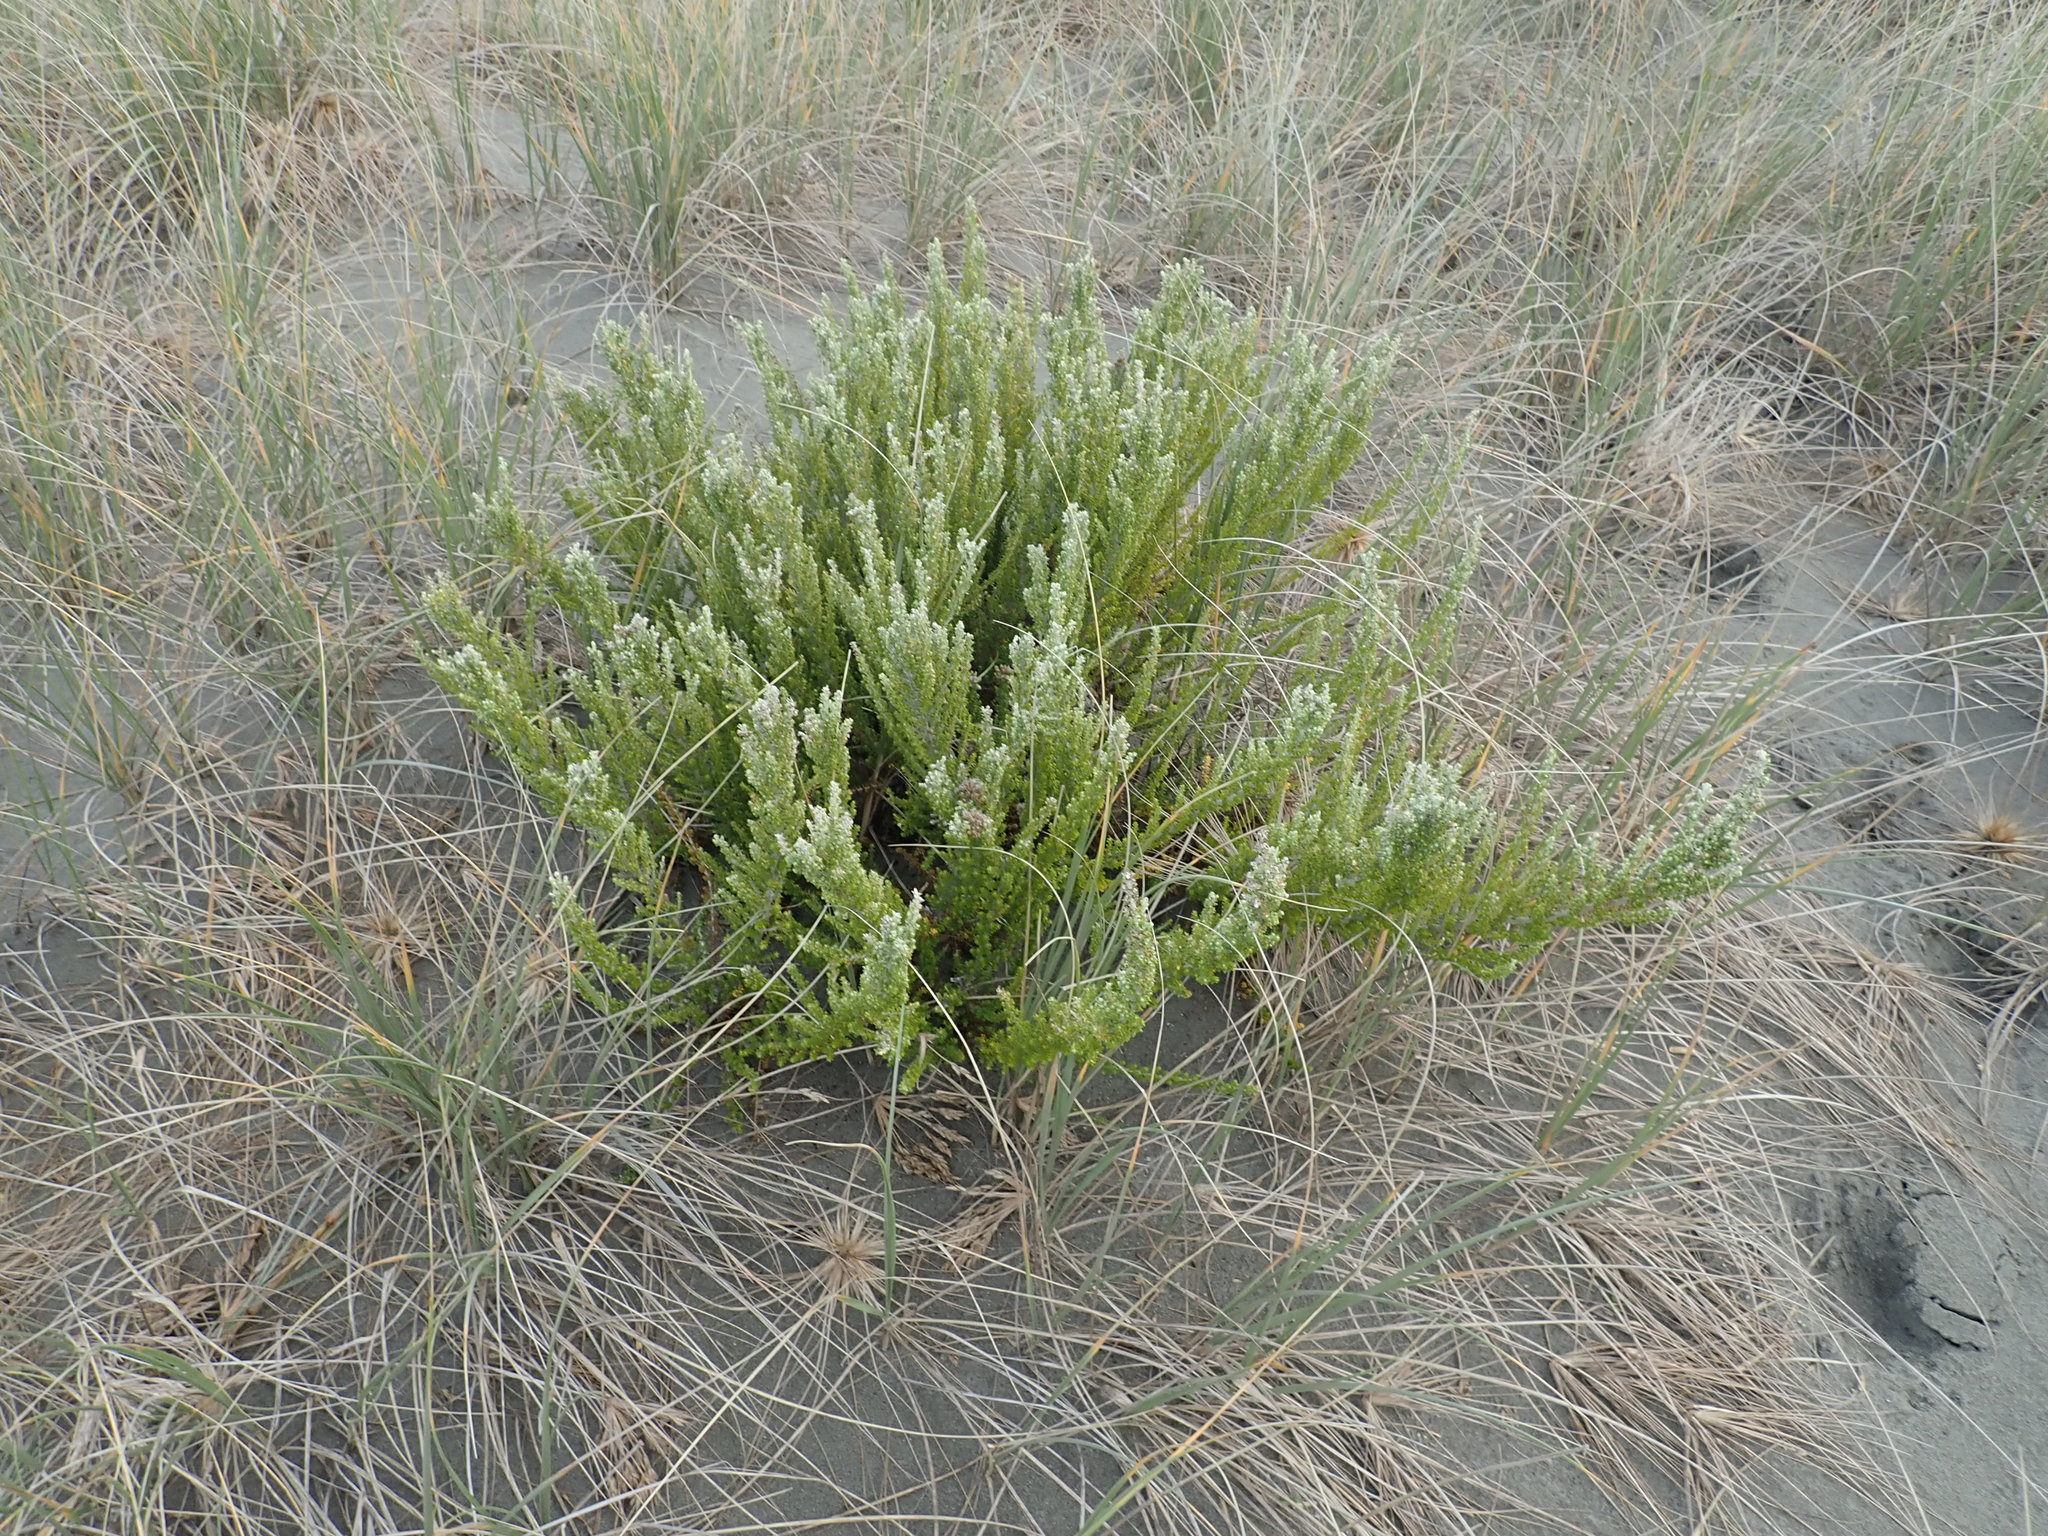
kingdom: Plantae
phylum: Tracheophyta
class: Magnoliopsida
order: Asterales
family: Asteraceae
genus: Ozothamnus
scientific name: Ozothamnus leptophyllus
